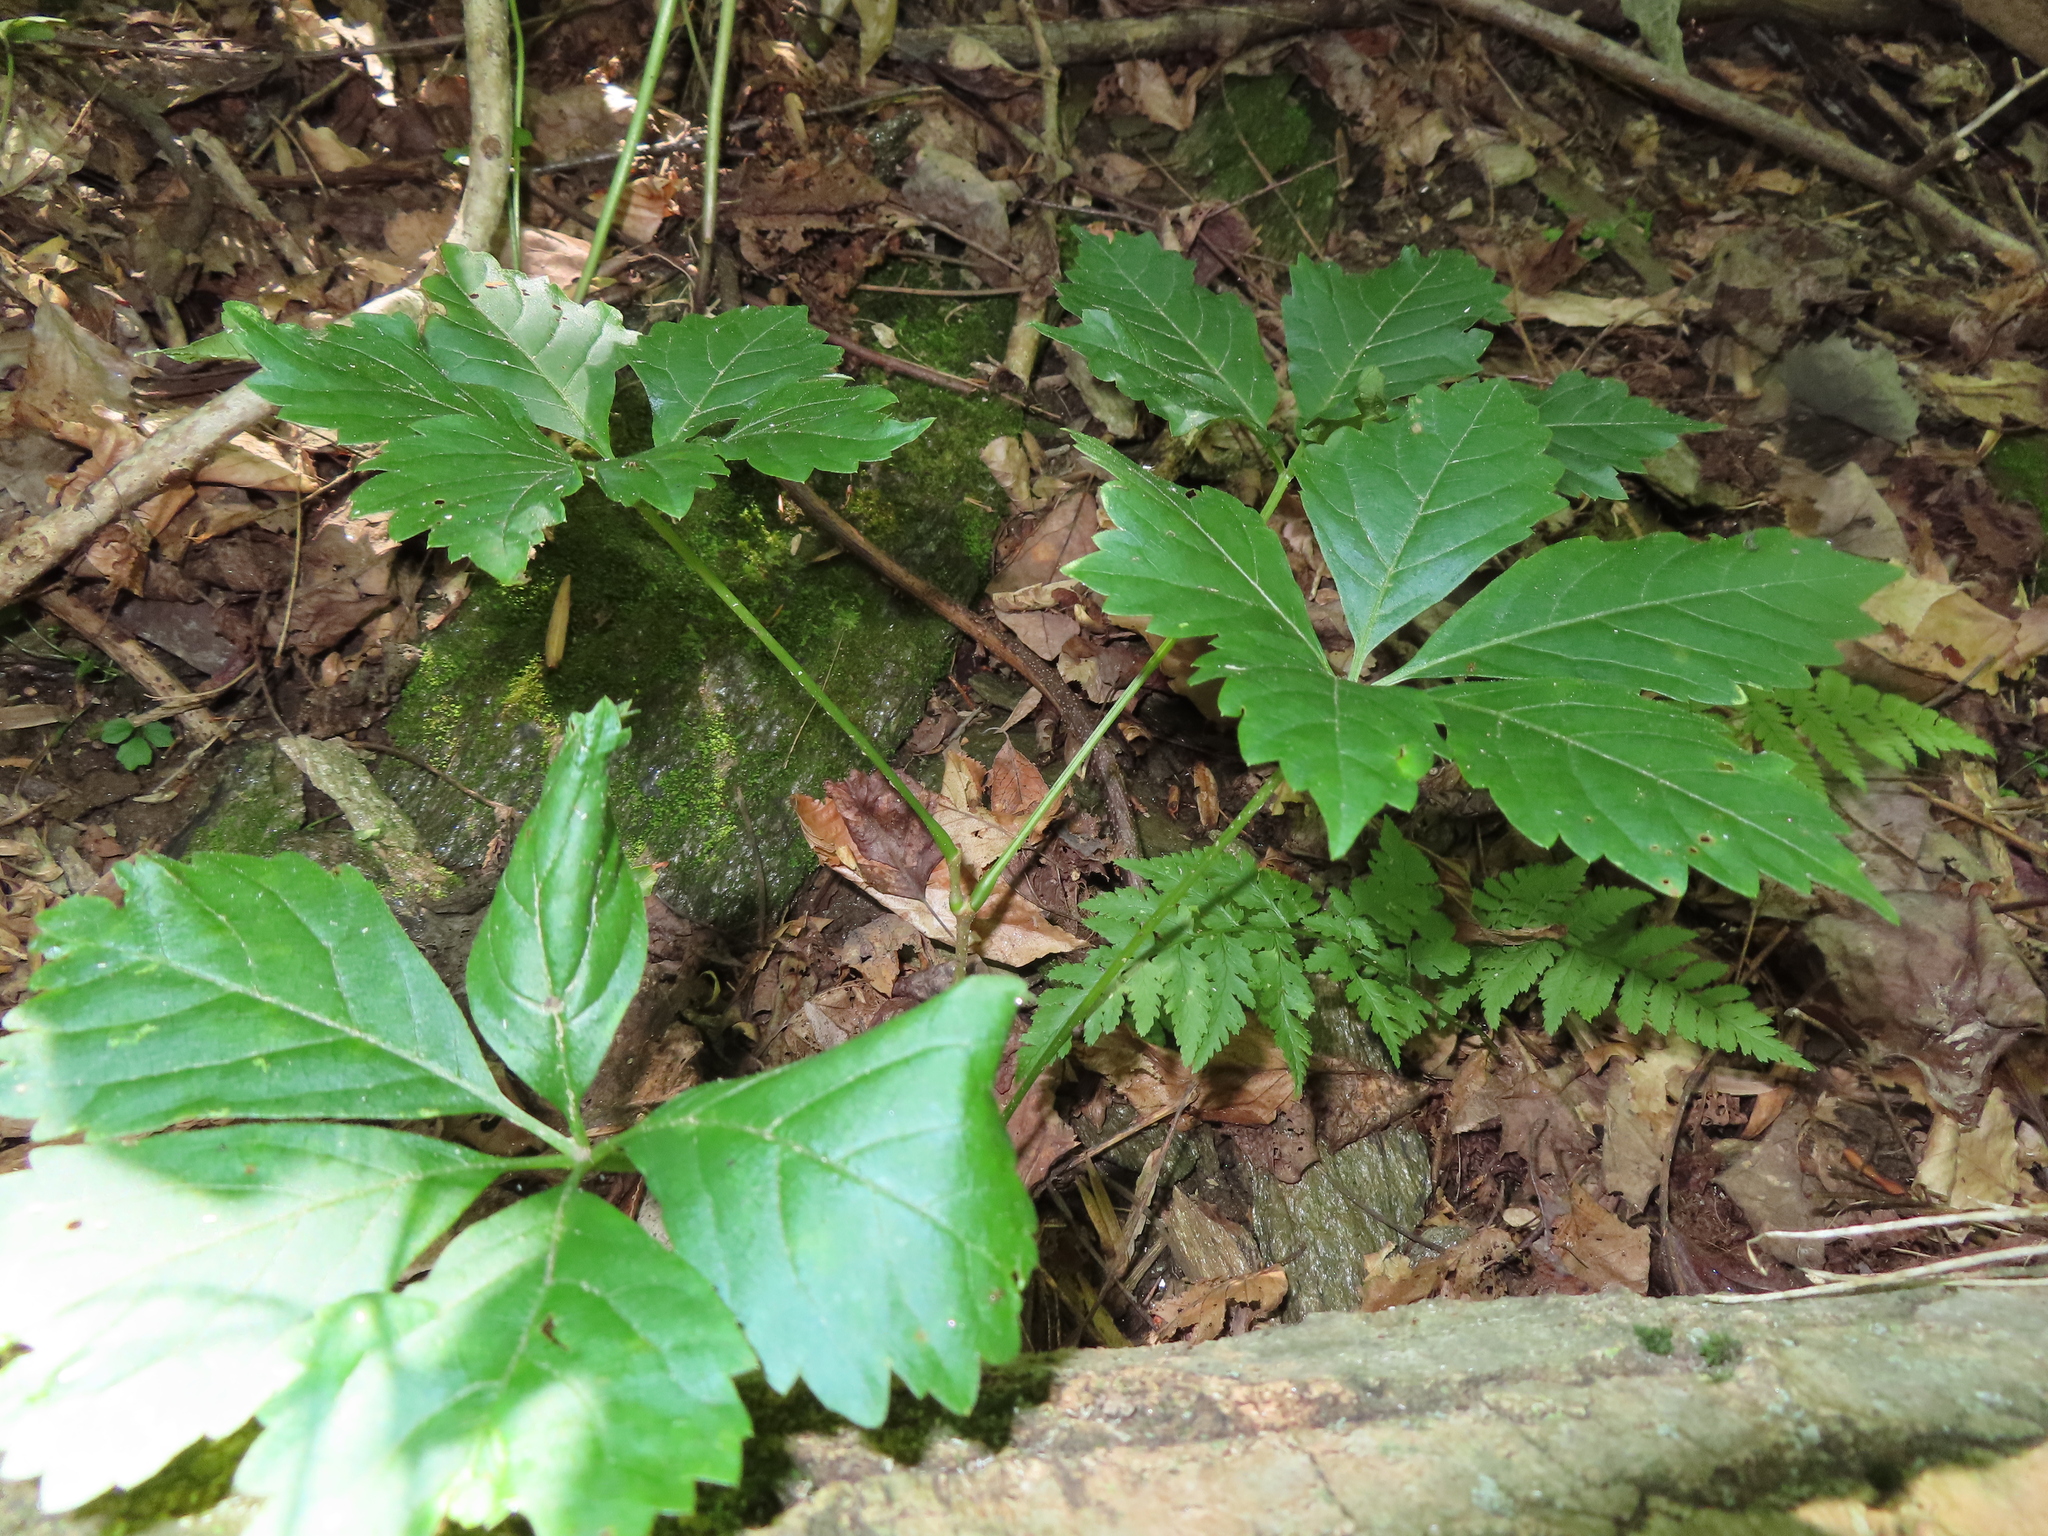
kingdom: Plantae
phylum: Tracheophyta
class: Magnoliopsida
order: Vitales
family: Vitaceae
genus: Parthenocissus
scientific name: Parthenocissus quinquefolia
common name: Virginia-creeper
